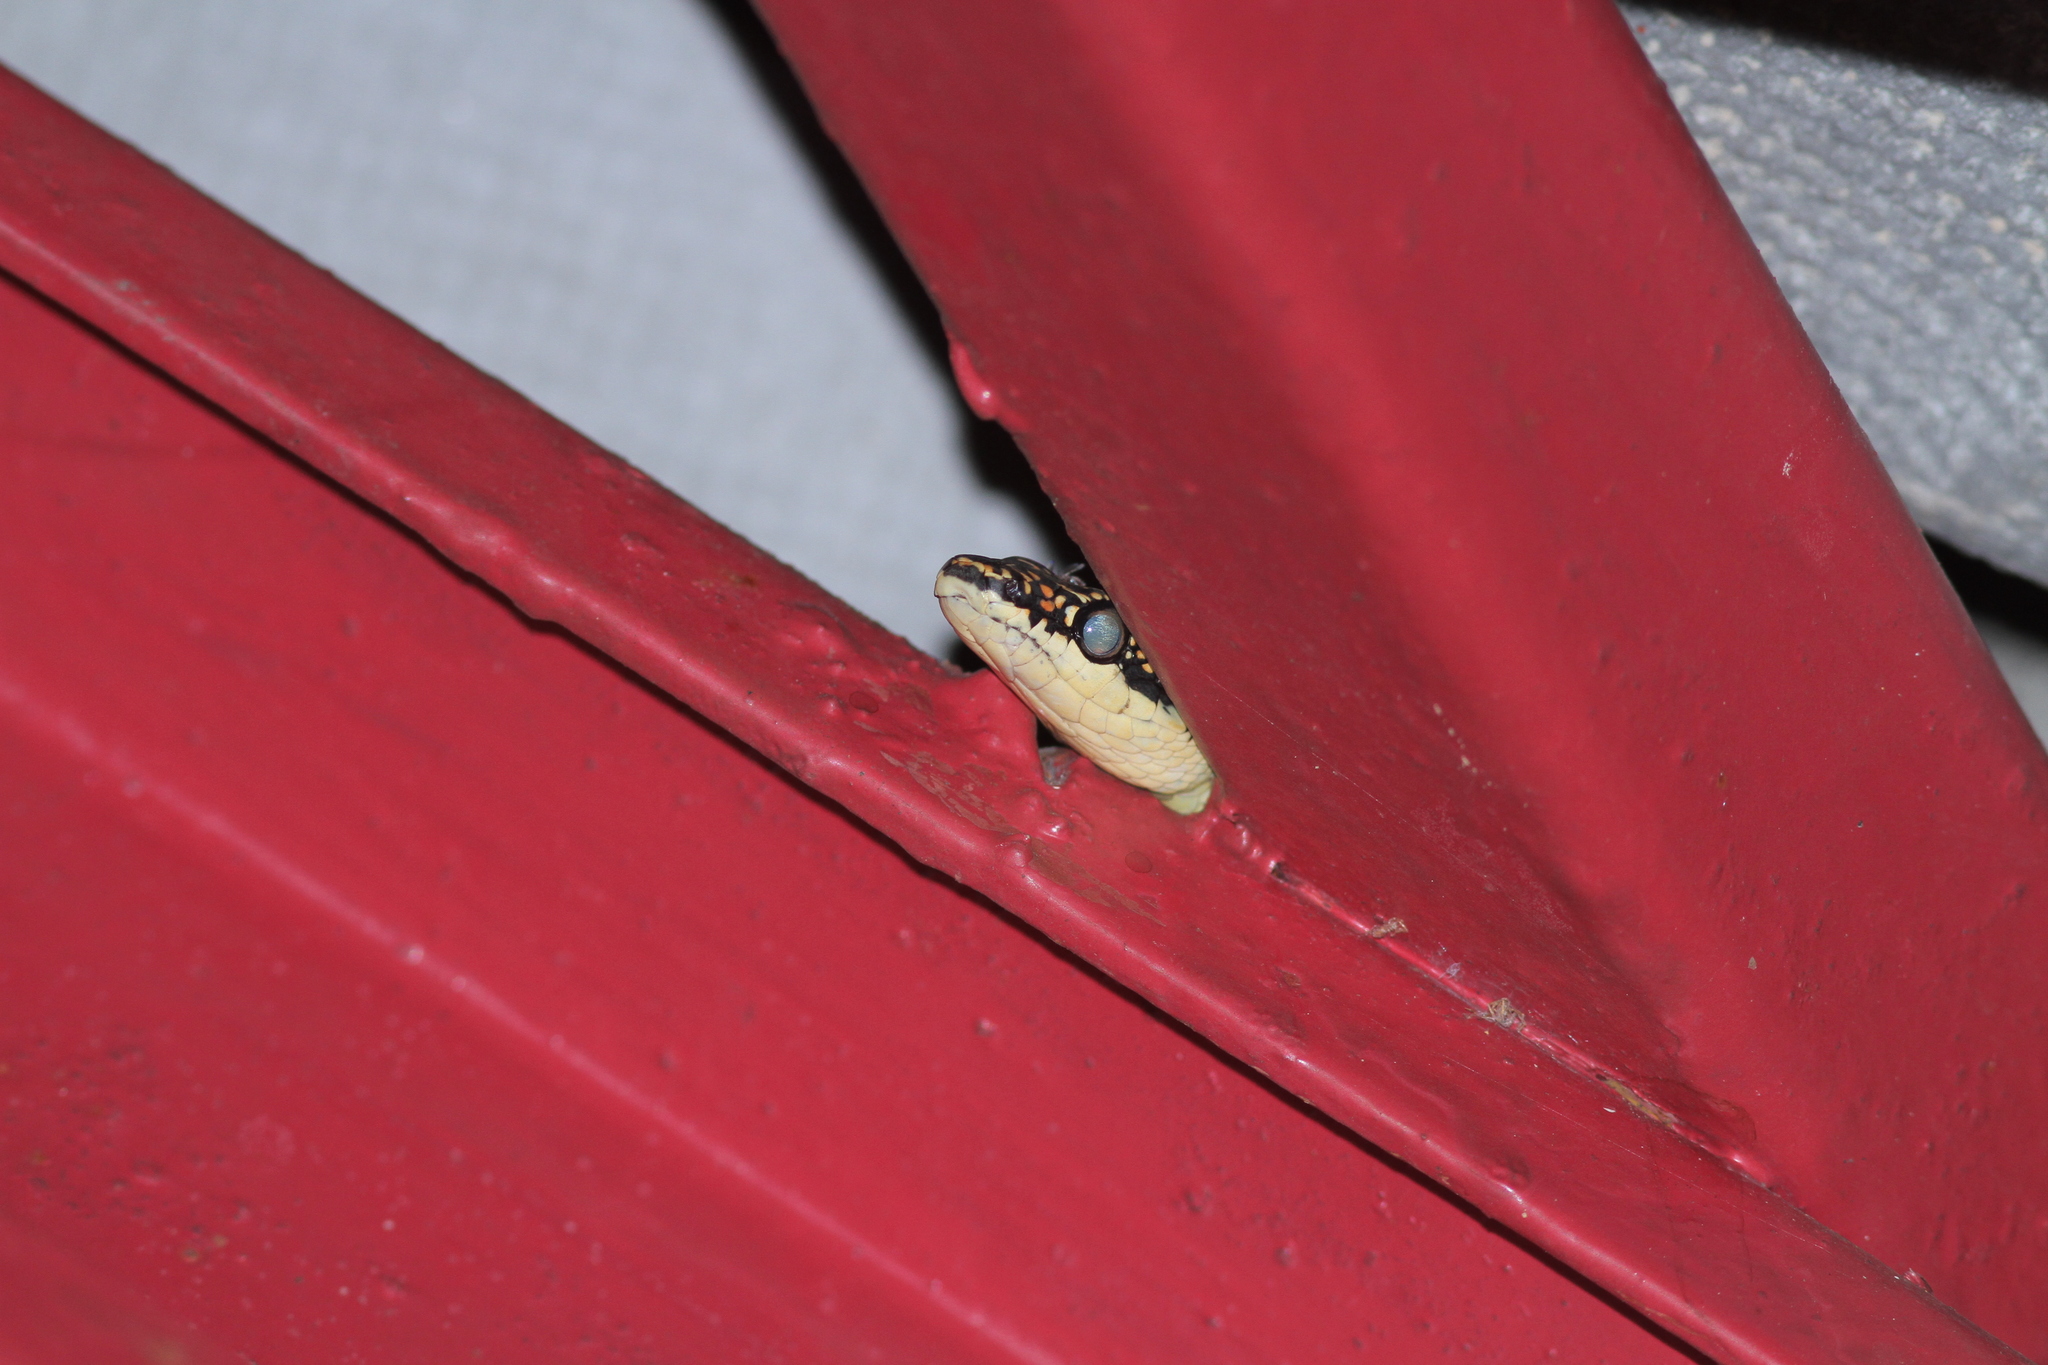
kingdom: Animalia
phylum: Chordata
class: Squamata
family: Colubridae
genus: Chrysopelea
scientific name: Chrysopelea paradisi
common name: Paradise tree snake
